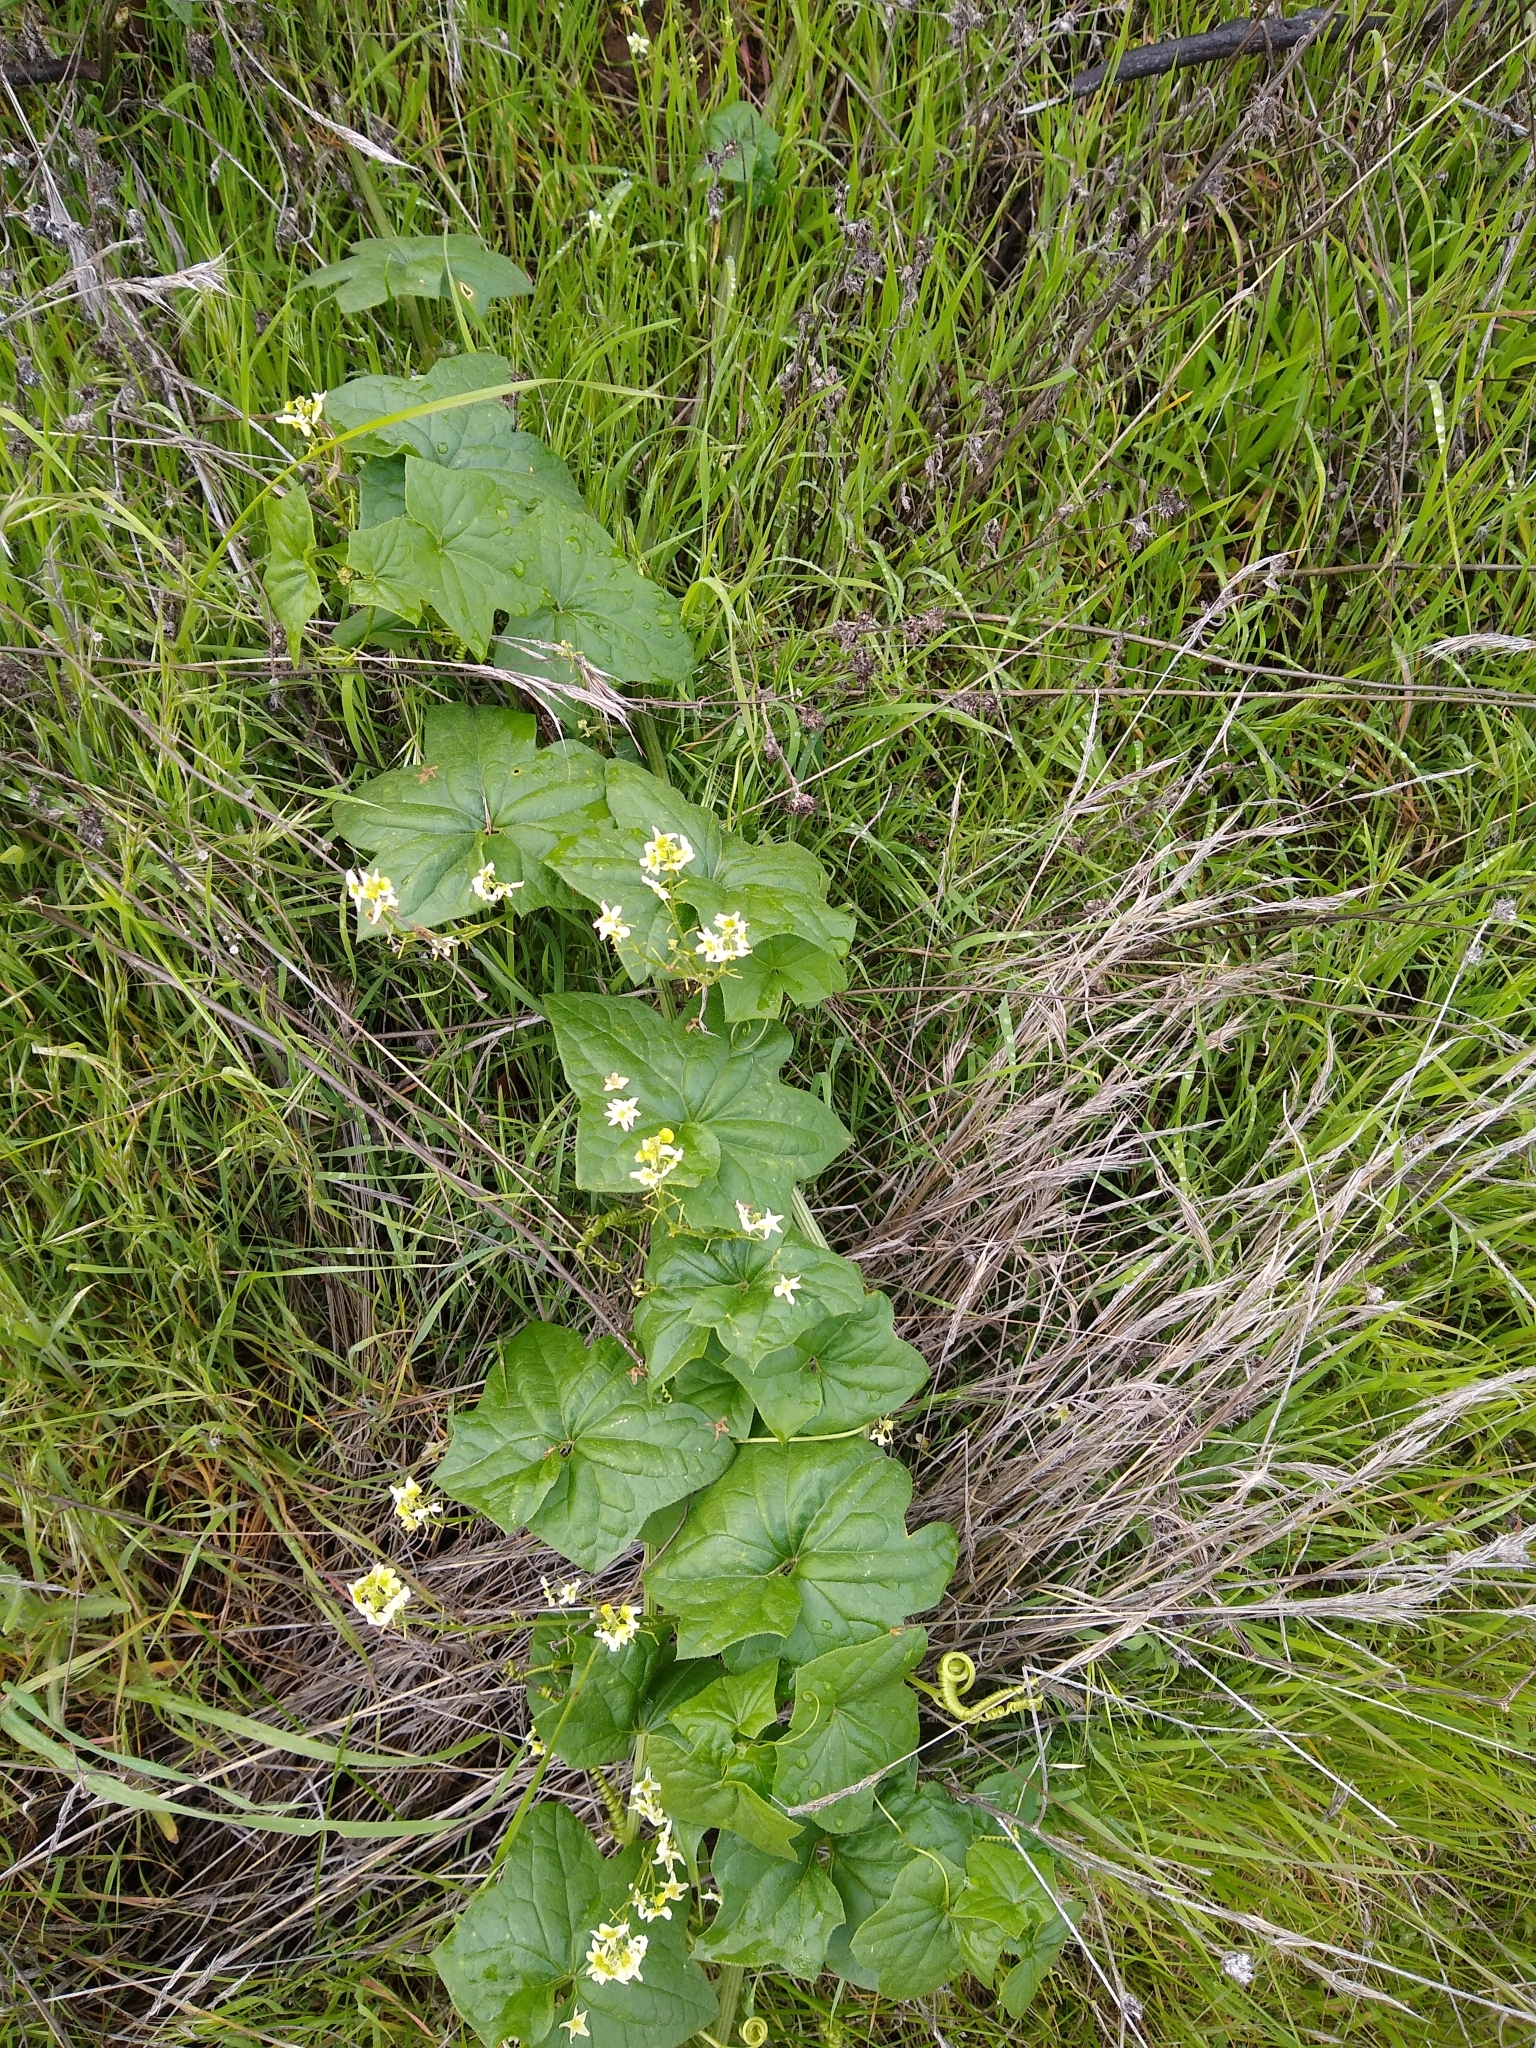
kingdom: Plantae
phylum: Tracheophyta
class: Magnoliopsida
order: Cucurbitales
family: Cucurbitaceae
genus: Marah
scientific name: Marah fabacea
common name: California manroot
